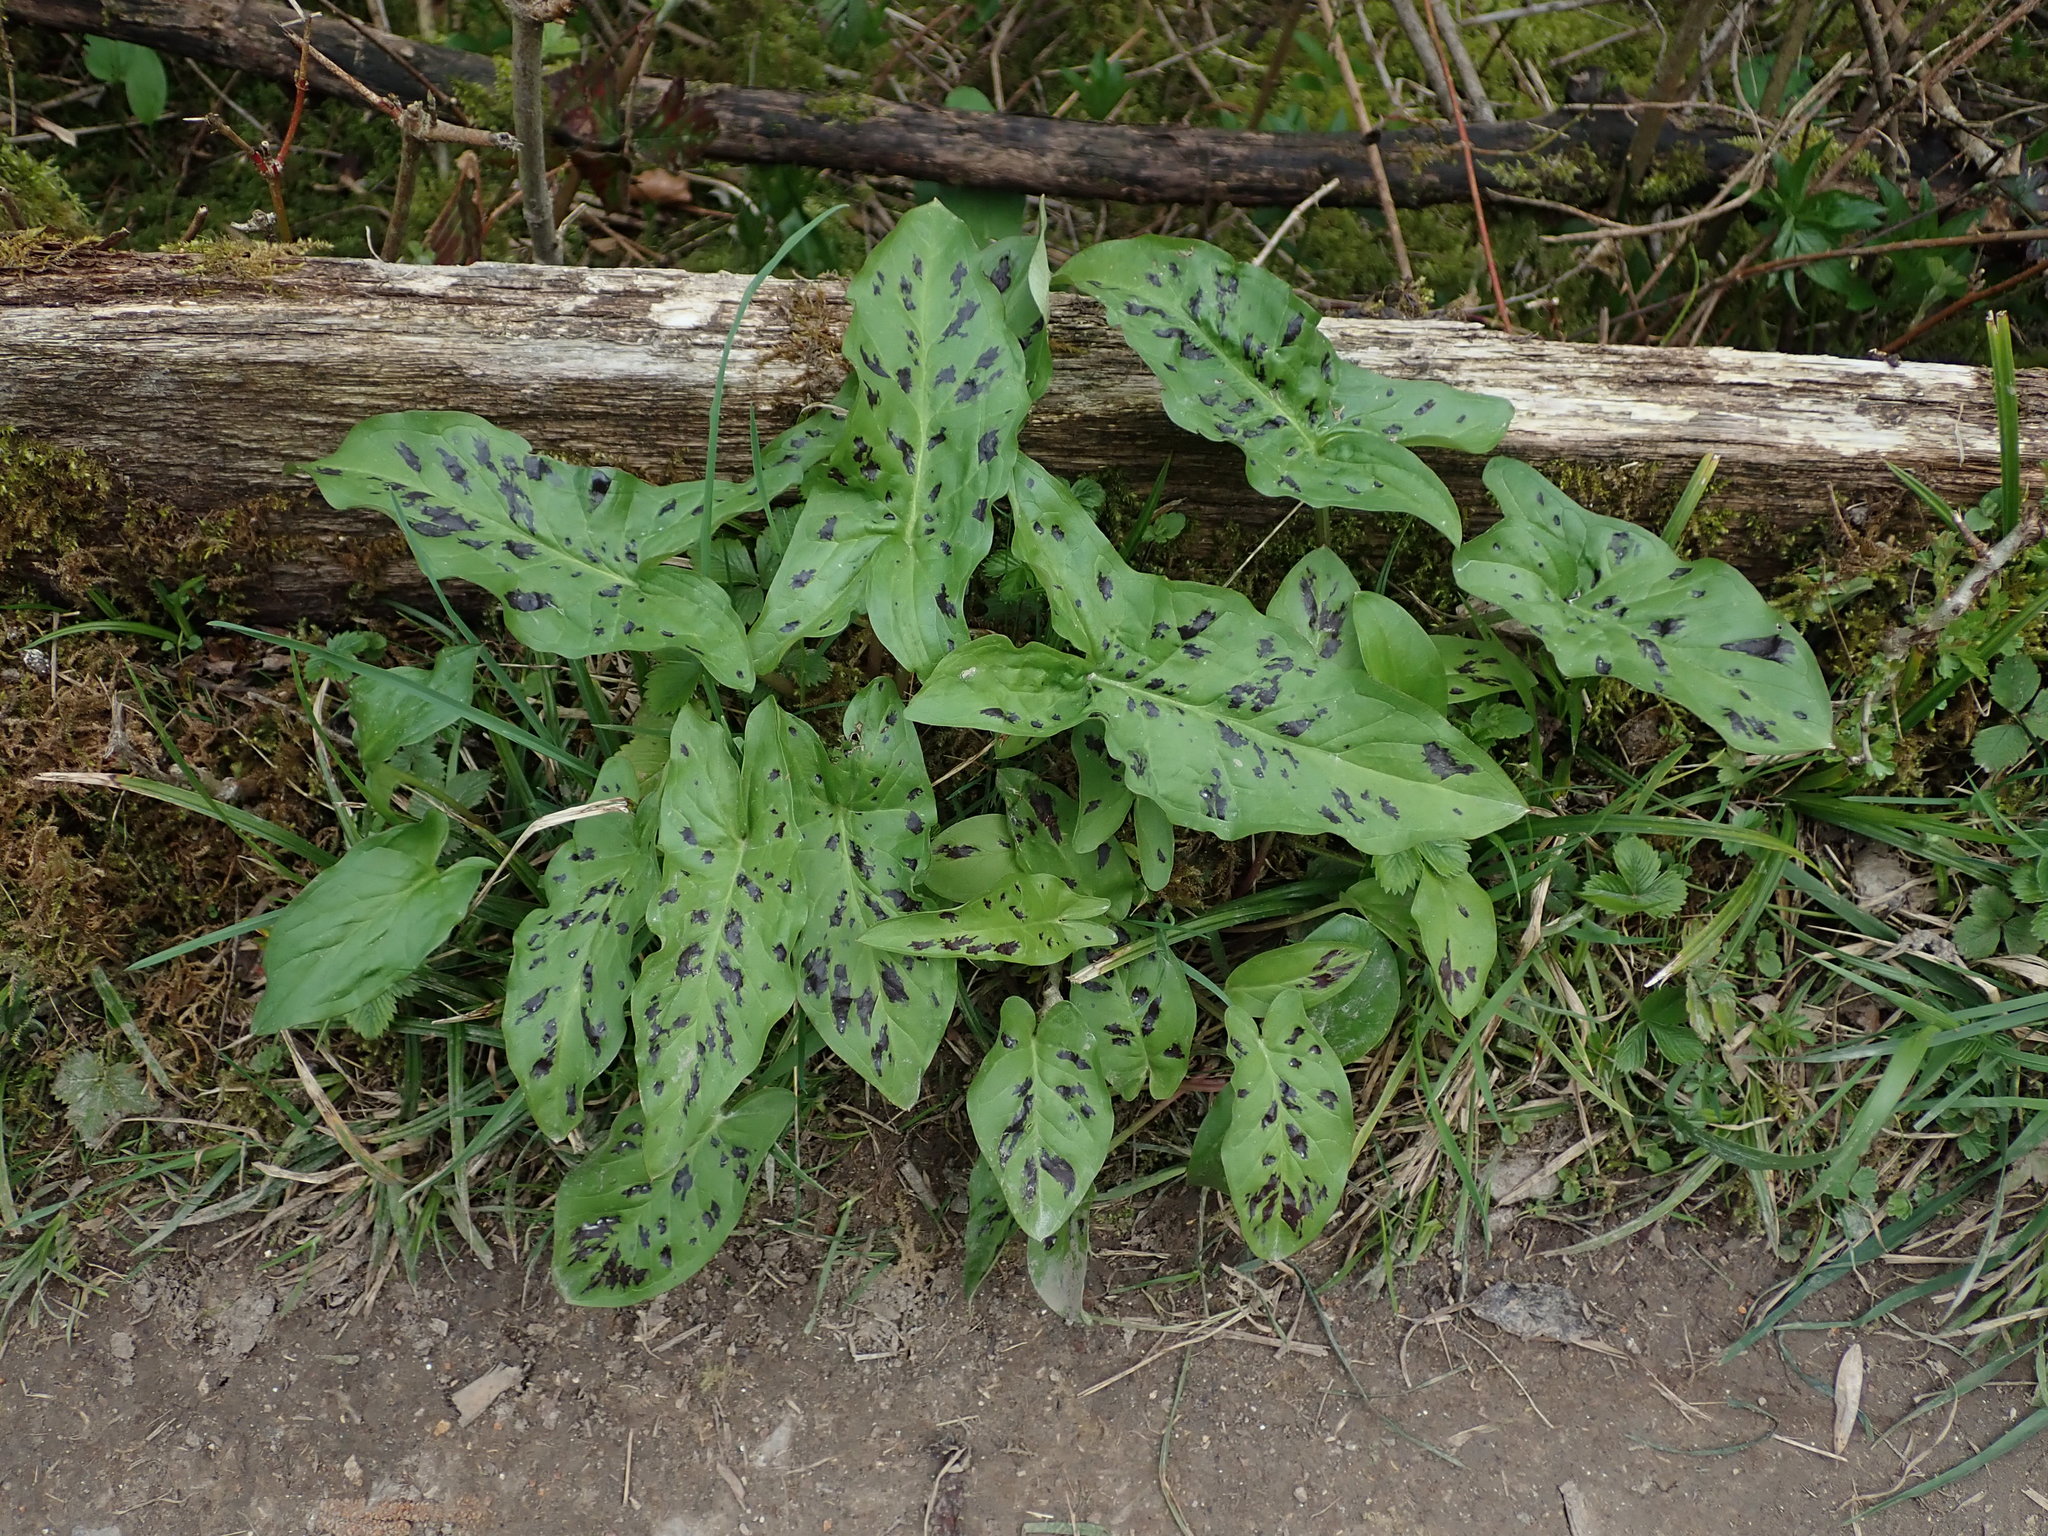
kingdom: Plantae
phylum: Tracheophyta
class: Liliopsida
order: Alismatales
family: Araceae
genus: Arum
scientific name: Arum maculatum
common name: Lords-and-ladies
